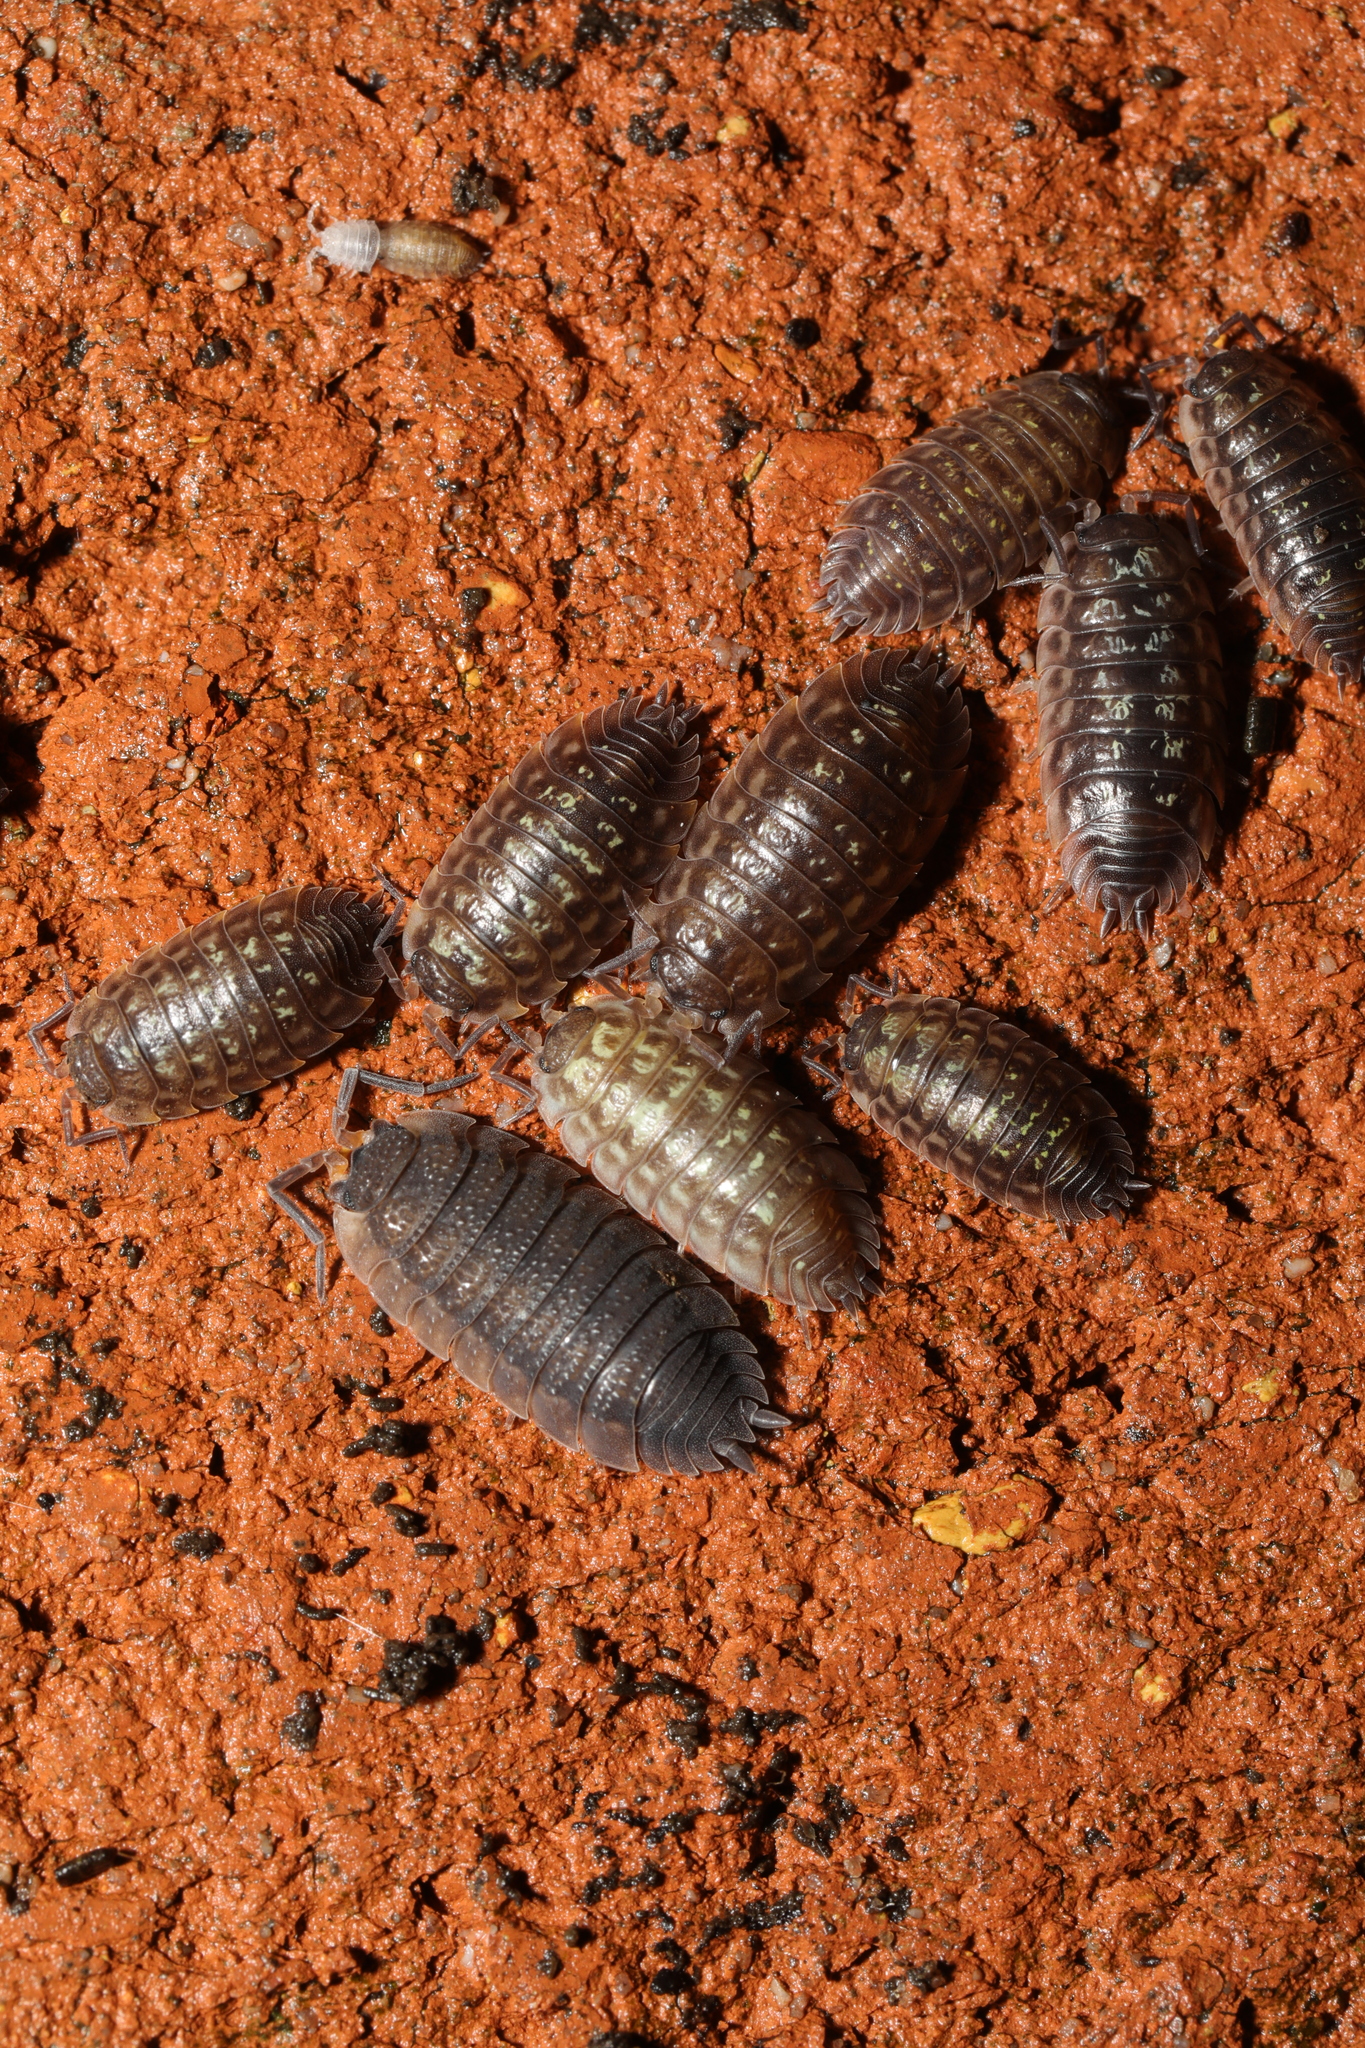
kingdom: Animalia
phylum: Arthropoda
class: Malacostraca
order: Isopoda
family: Oniscidae
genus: Oniscus
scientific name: Oniscus asellus
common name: Common shiny woodlouse
